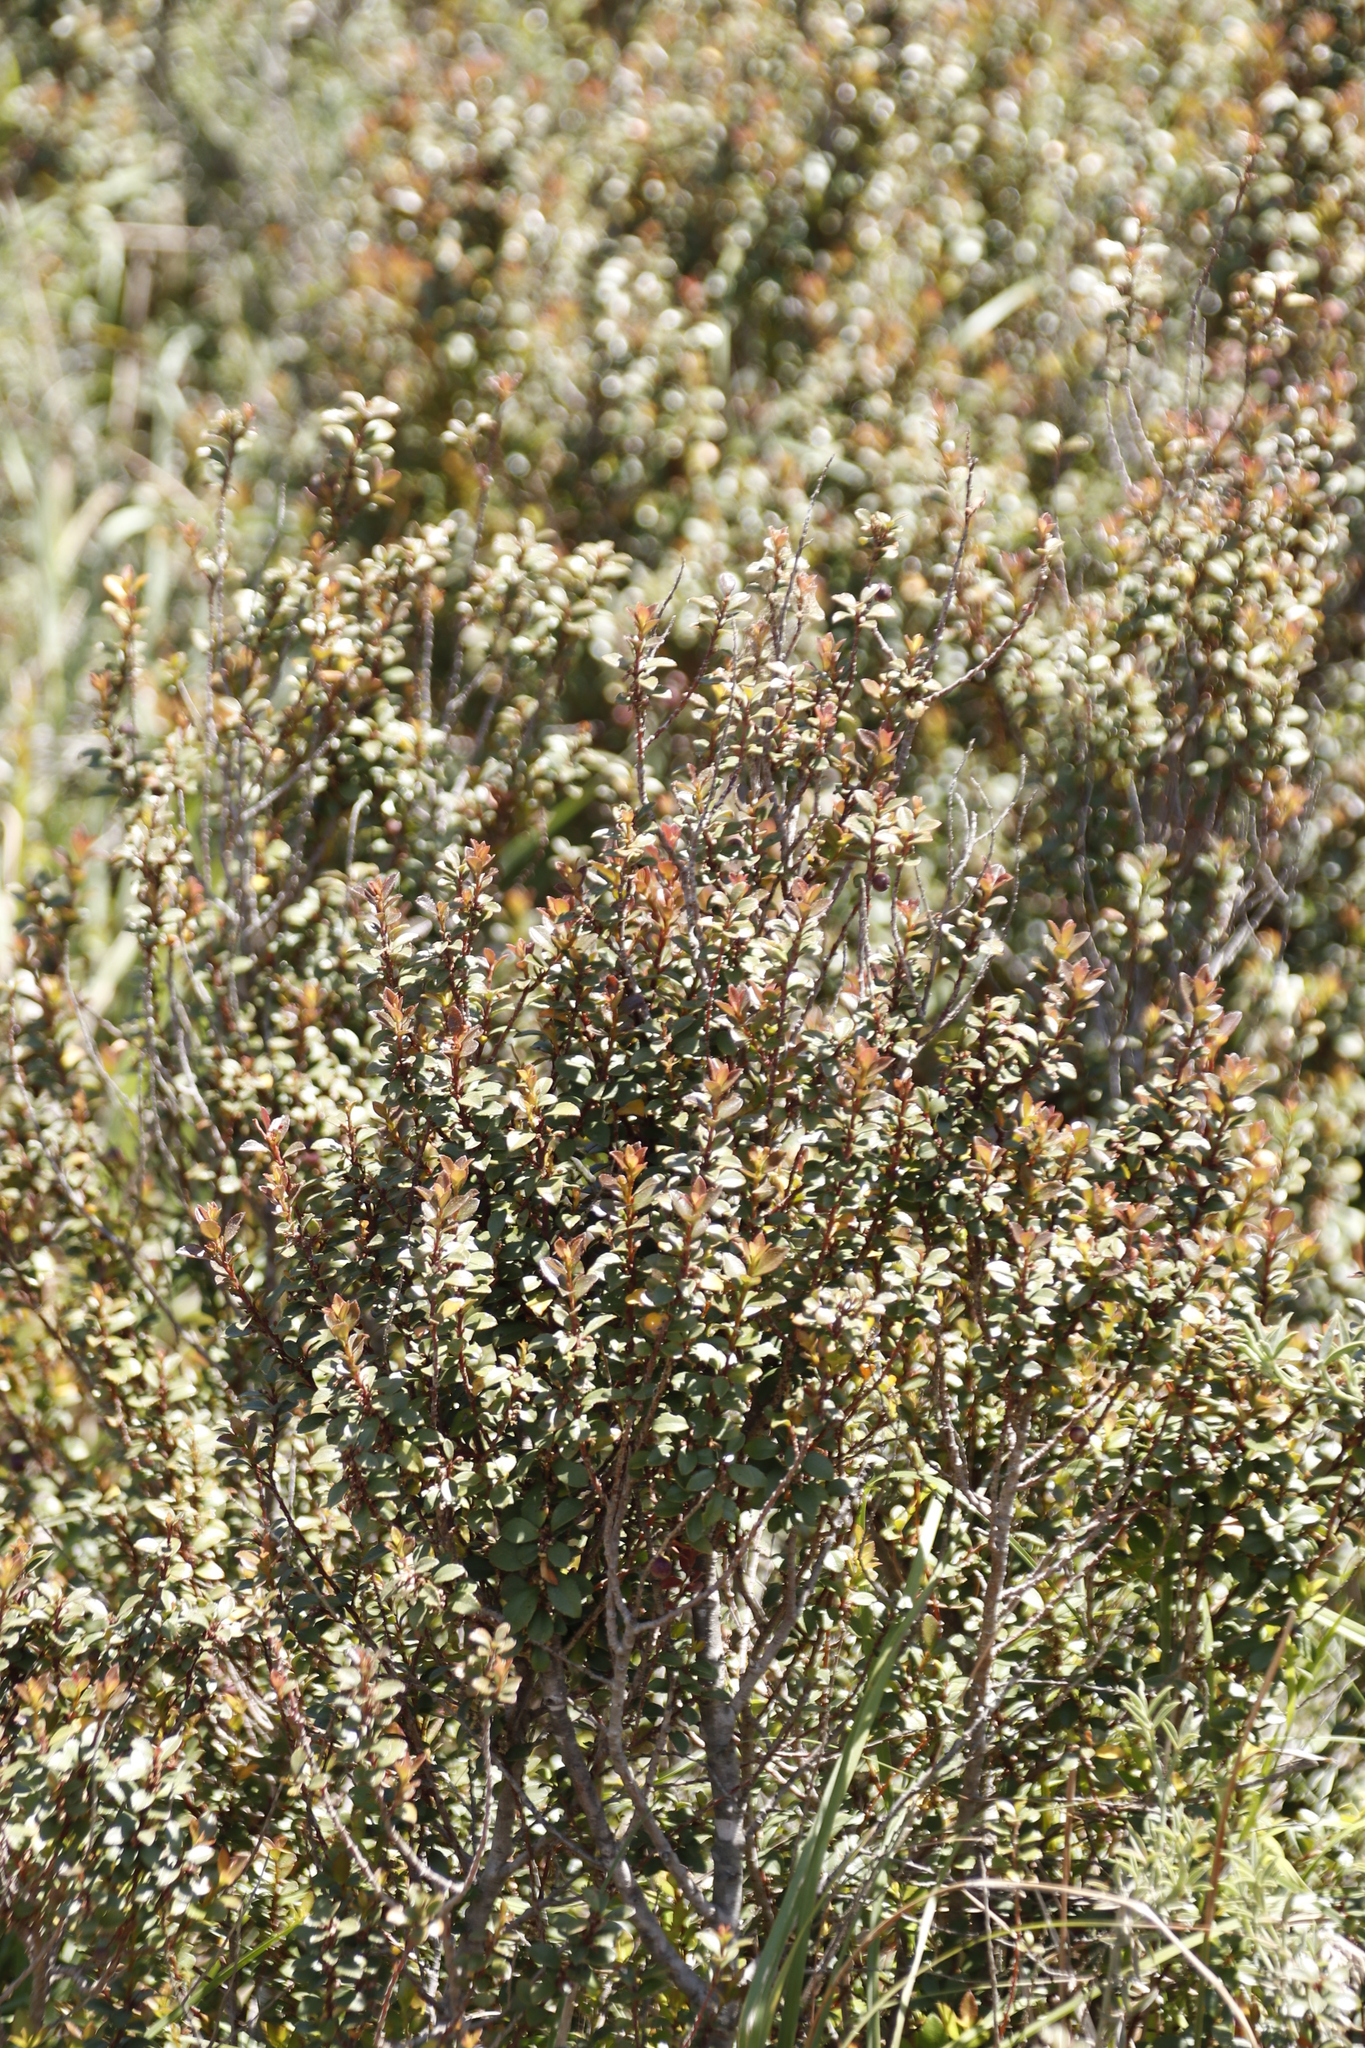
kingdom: Plantae
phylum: Tracheophyta
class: Magnoliopsida
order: Ericales
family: Primulaceae
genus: Myrsine
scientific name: Myrsine africana
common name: African-boxwood
